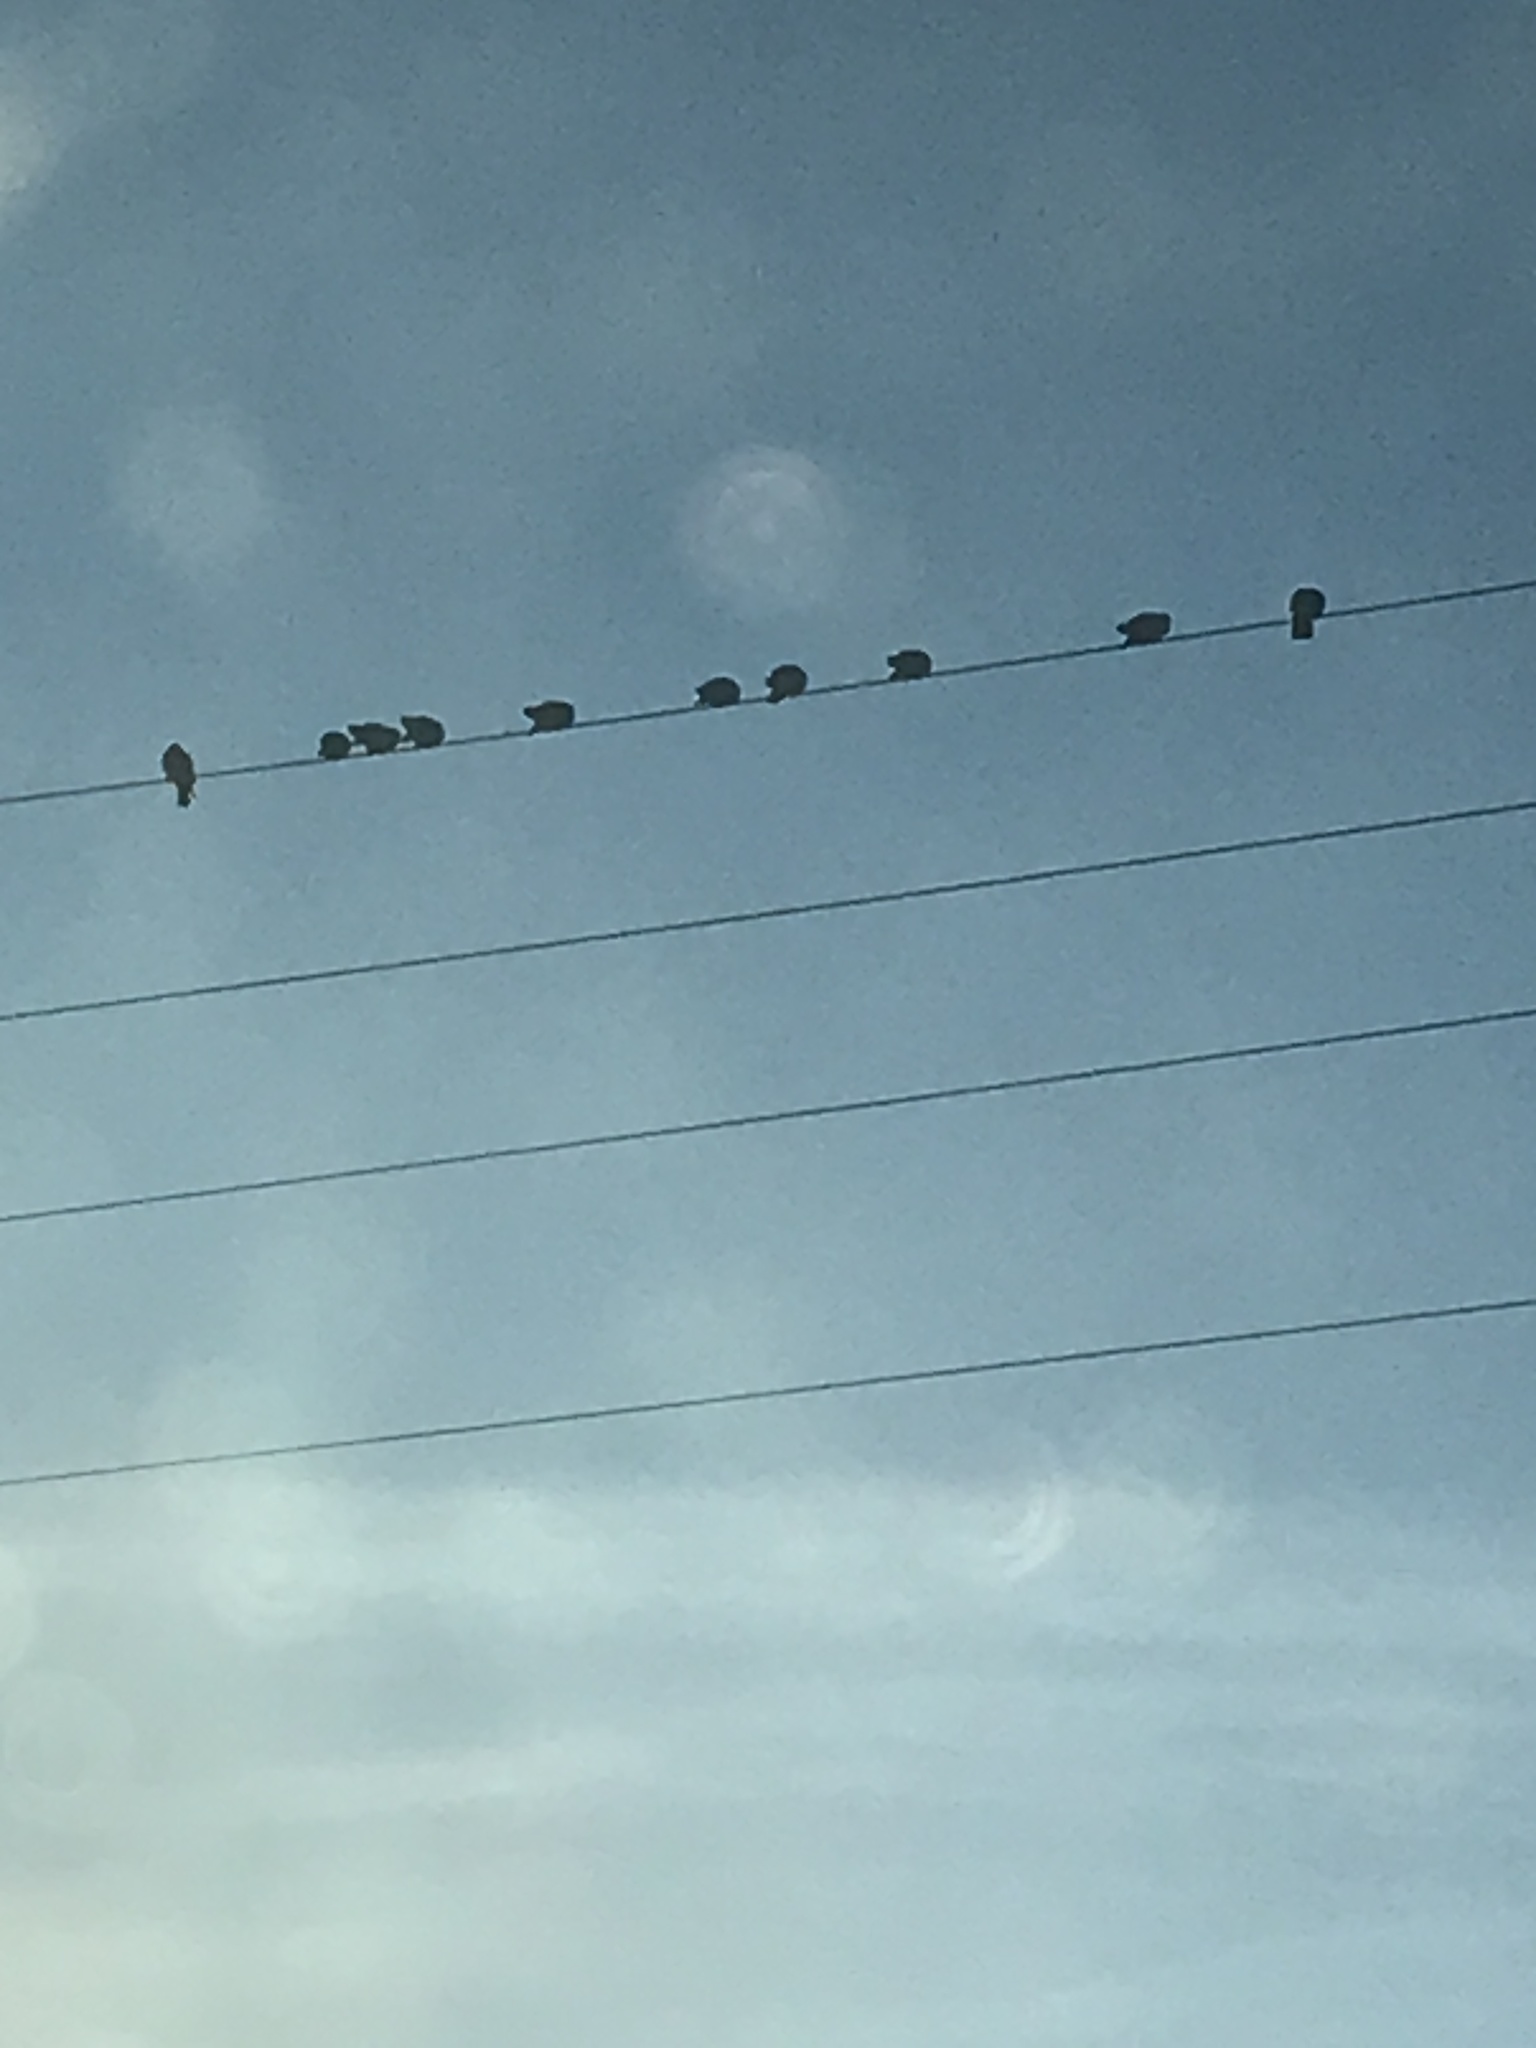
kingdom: Animalia
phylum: Chordata
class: Aves
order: Columbiformes
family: Columbidae
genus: Columba
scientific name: Columba livia
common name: Rock pigeon
